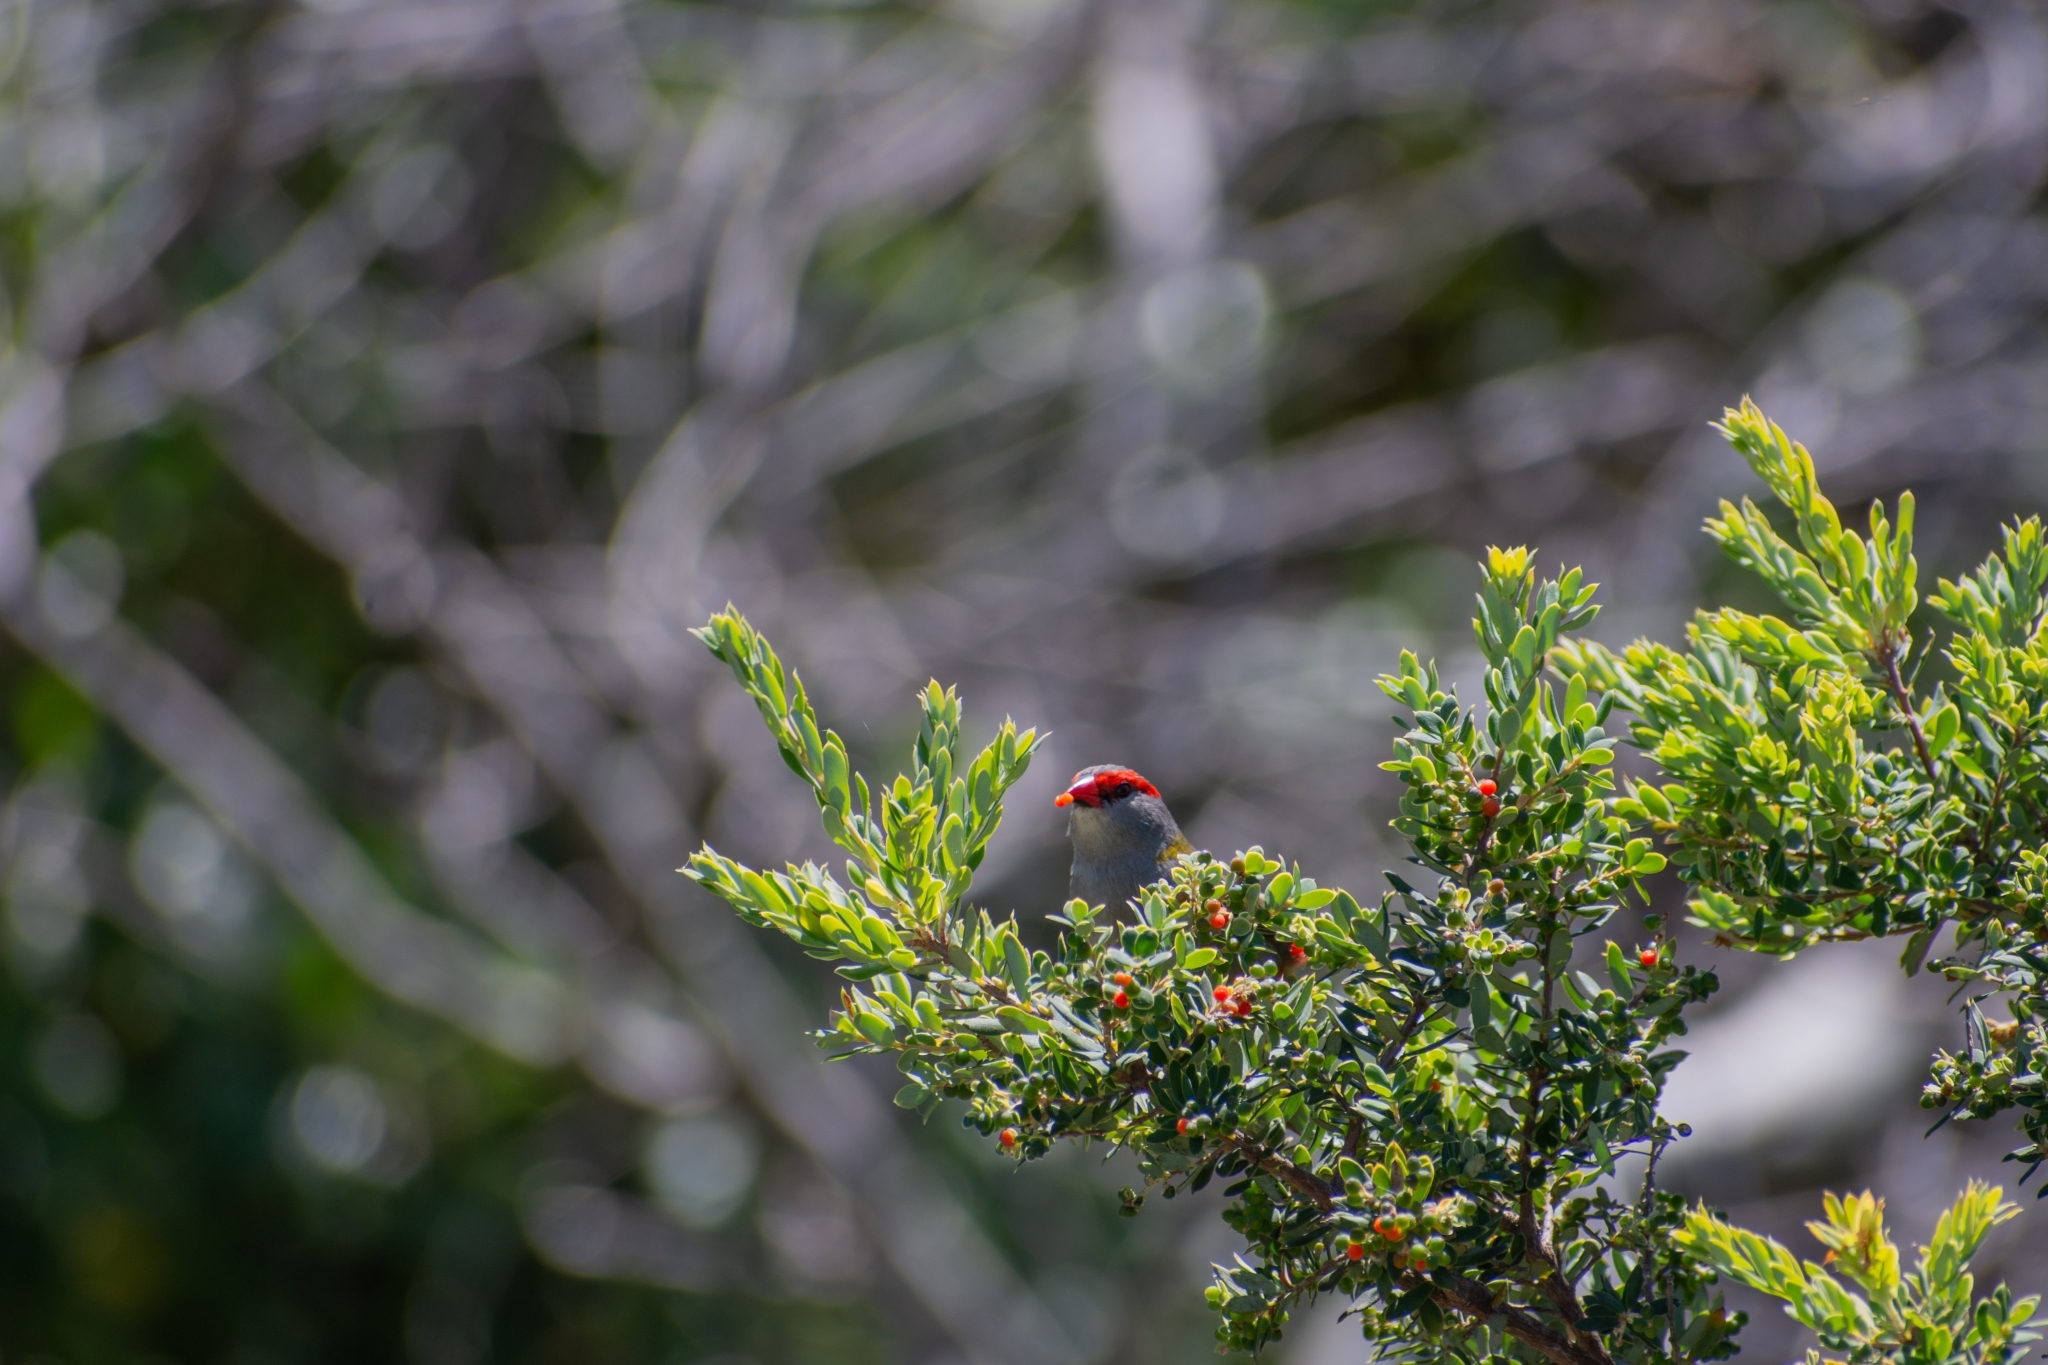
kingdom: Animalia
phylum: Chordata
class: Aves
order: Passeriformes
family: Estrildidae
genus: Neochmia
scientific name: Neochmia temporalis
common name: Red-browed finch
